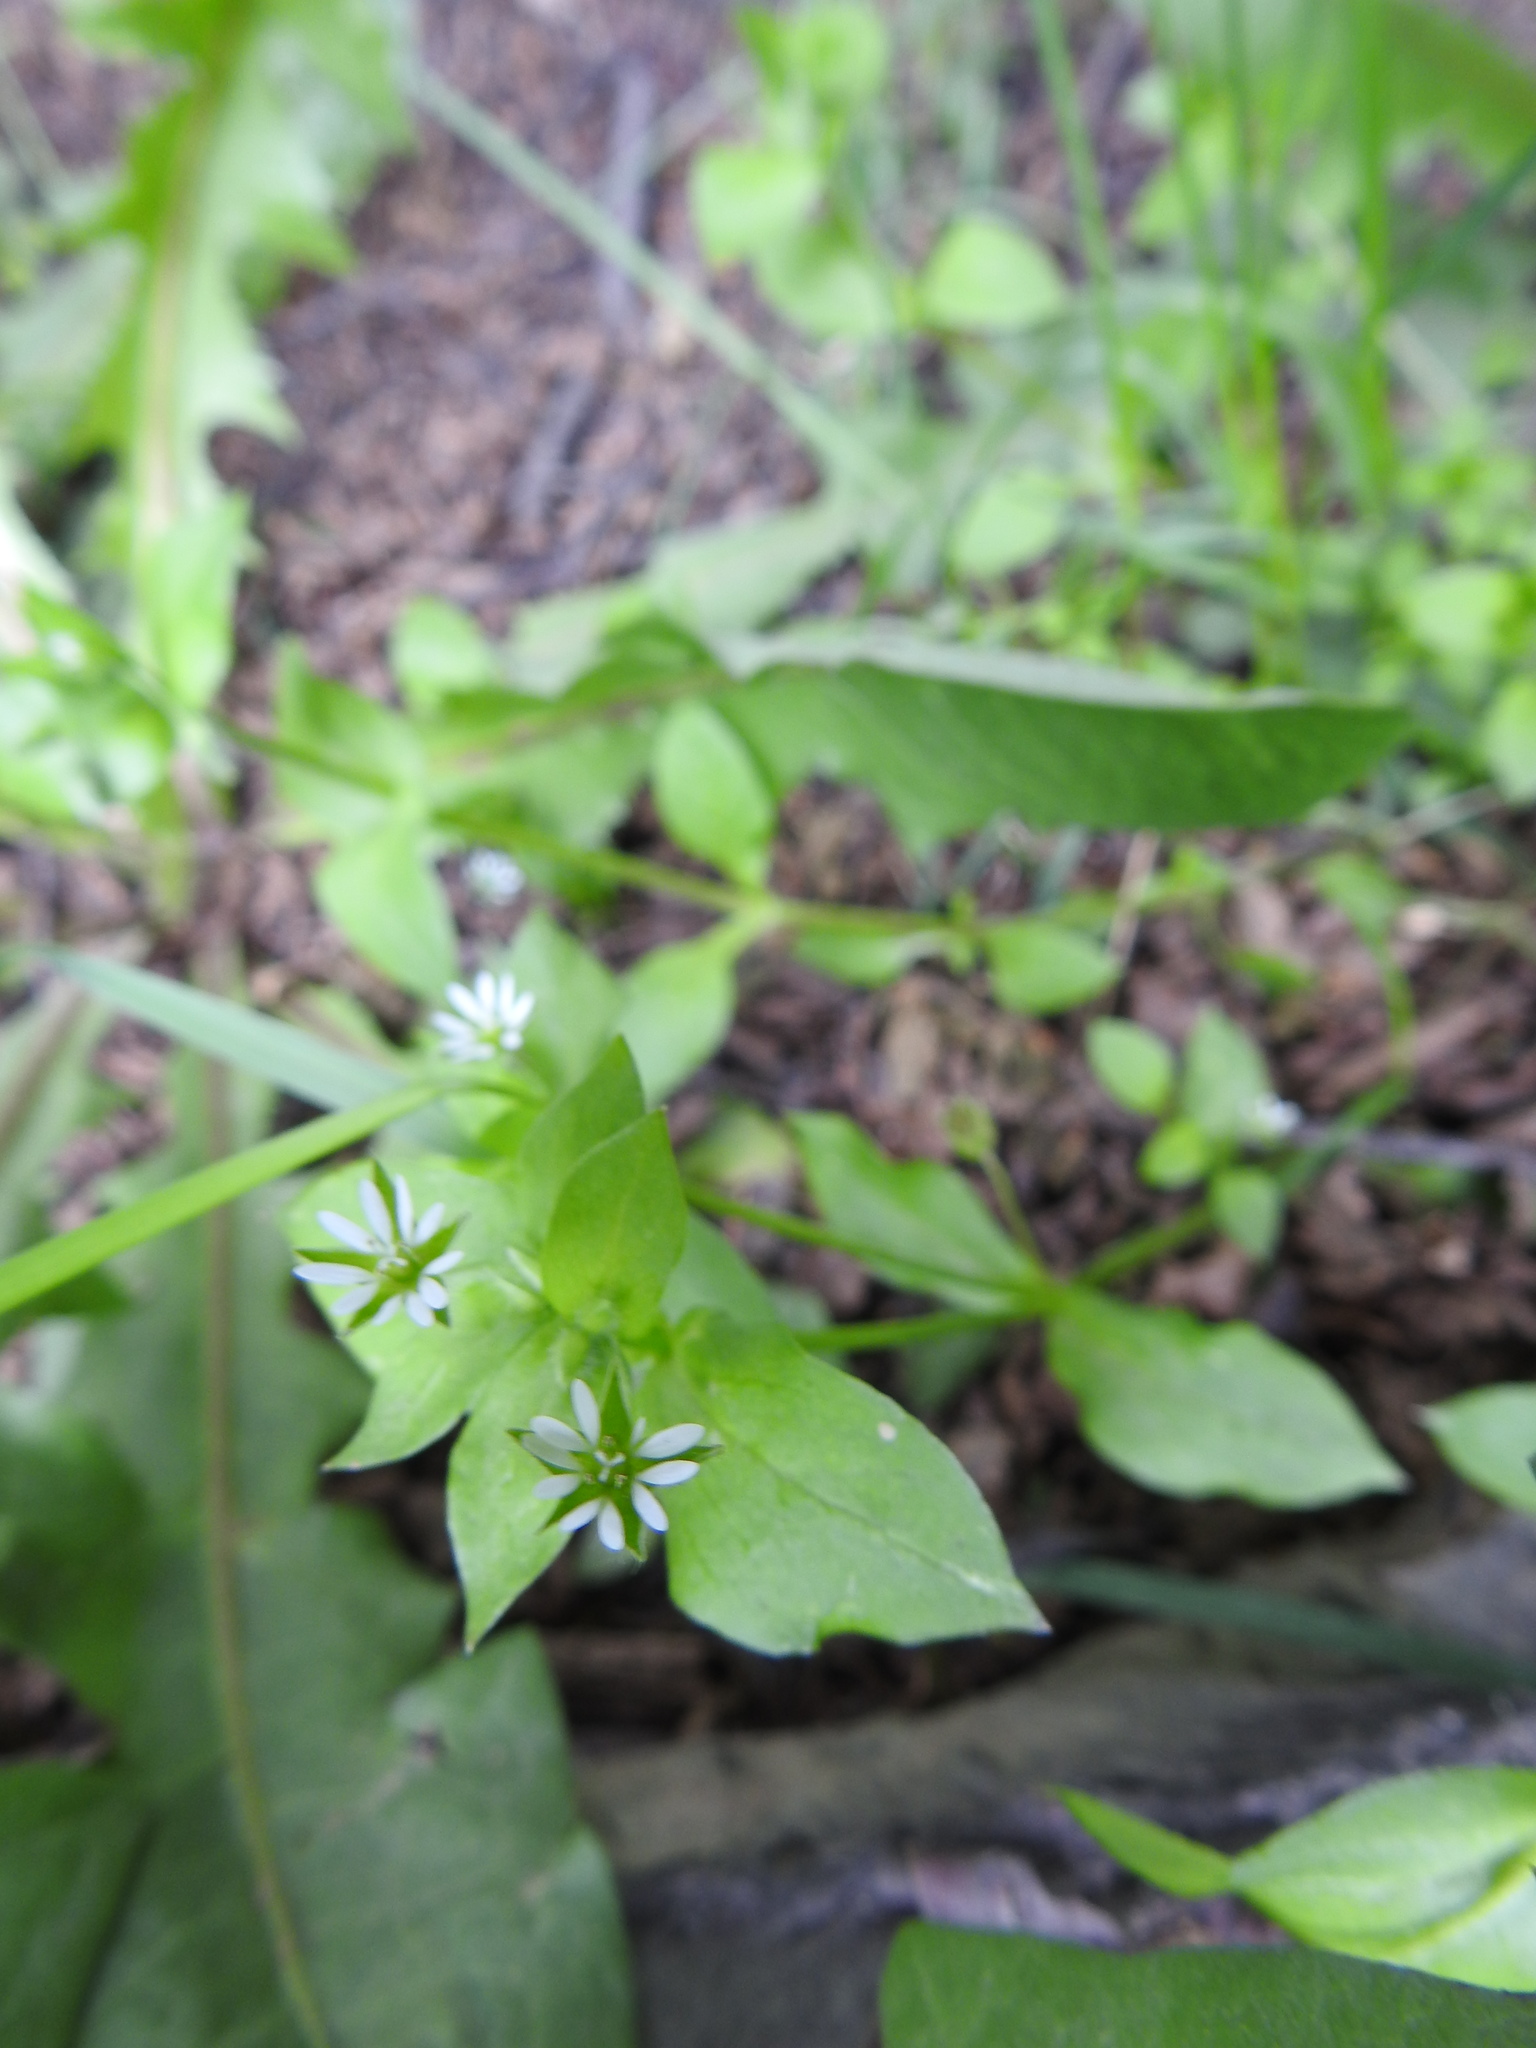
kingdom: Plantae
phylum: Tracheophyta
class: Magnoliopsida
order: Caryophyllales
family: Caryophyllaceae
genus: Stellaria
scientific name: Stellaria media
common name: Common chickweed
